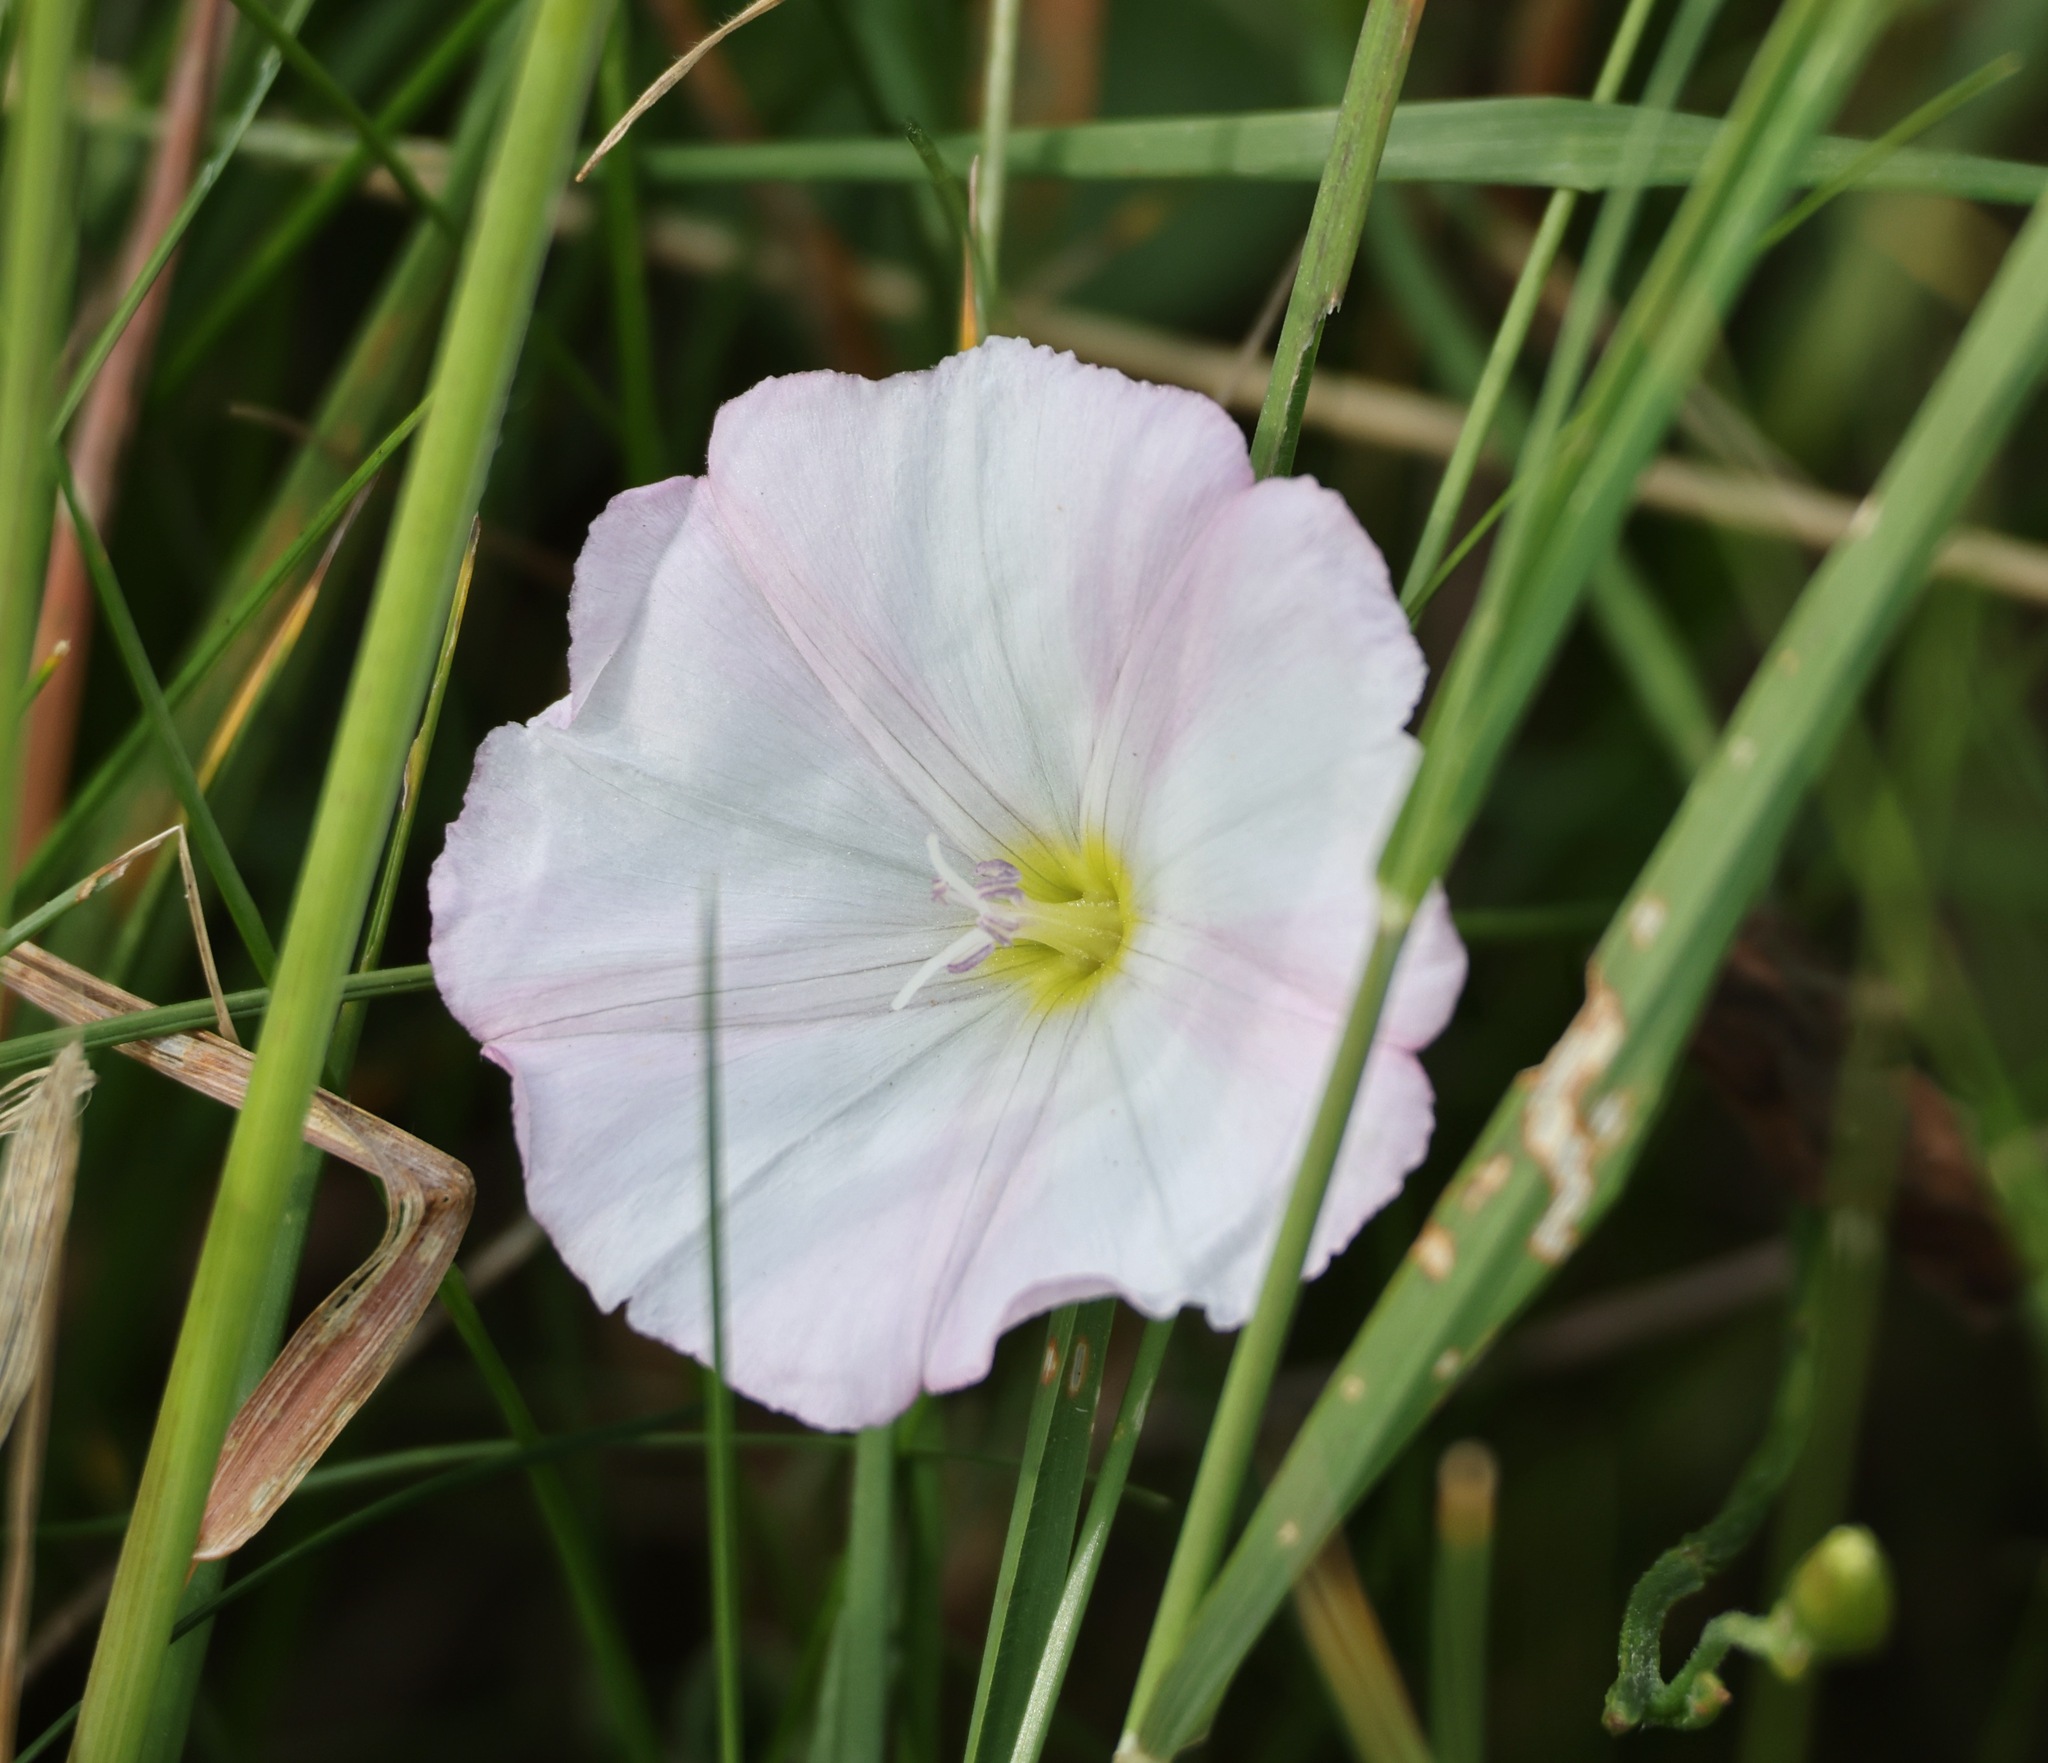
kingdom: Plantae
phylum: Tracheophyta
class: Magnoliopsida
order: Solanales
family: Convolvulaceae
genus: Convolvulus
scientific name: Convolvulus arvensis
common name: Field bindweed
